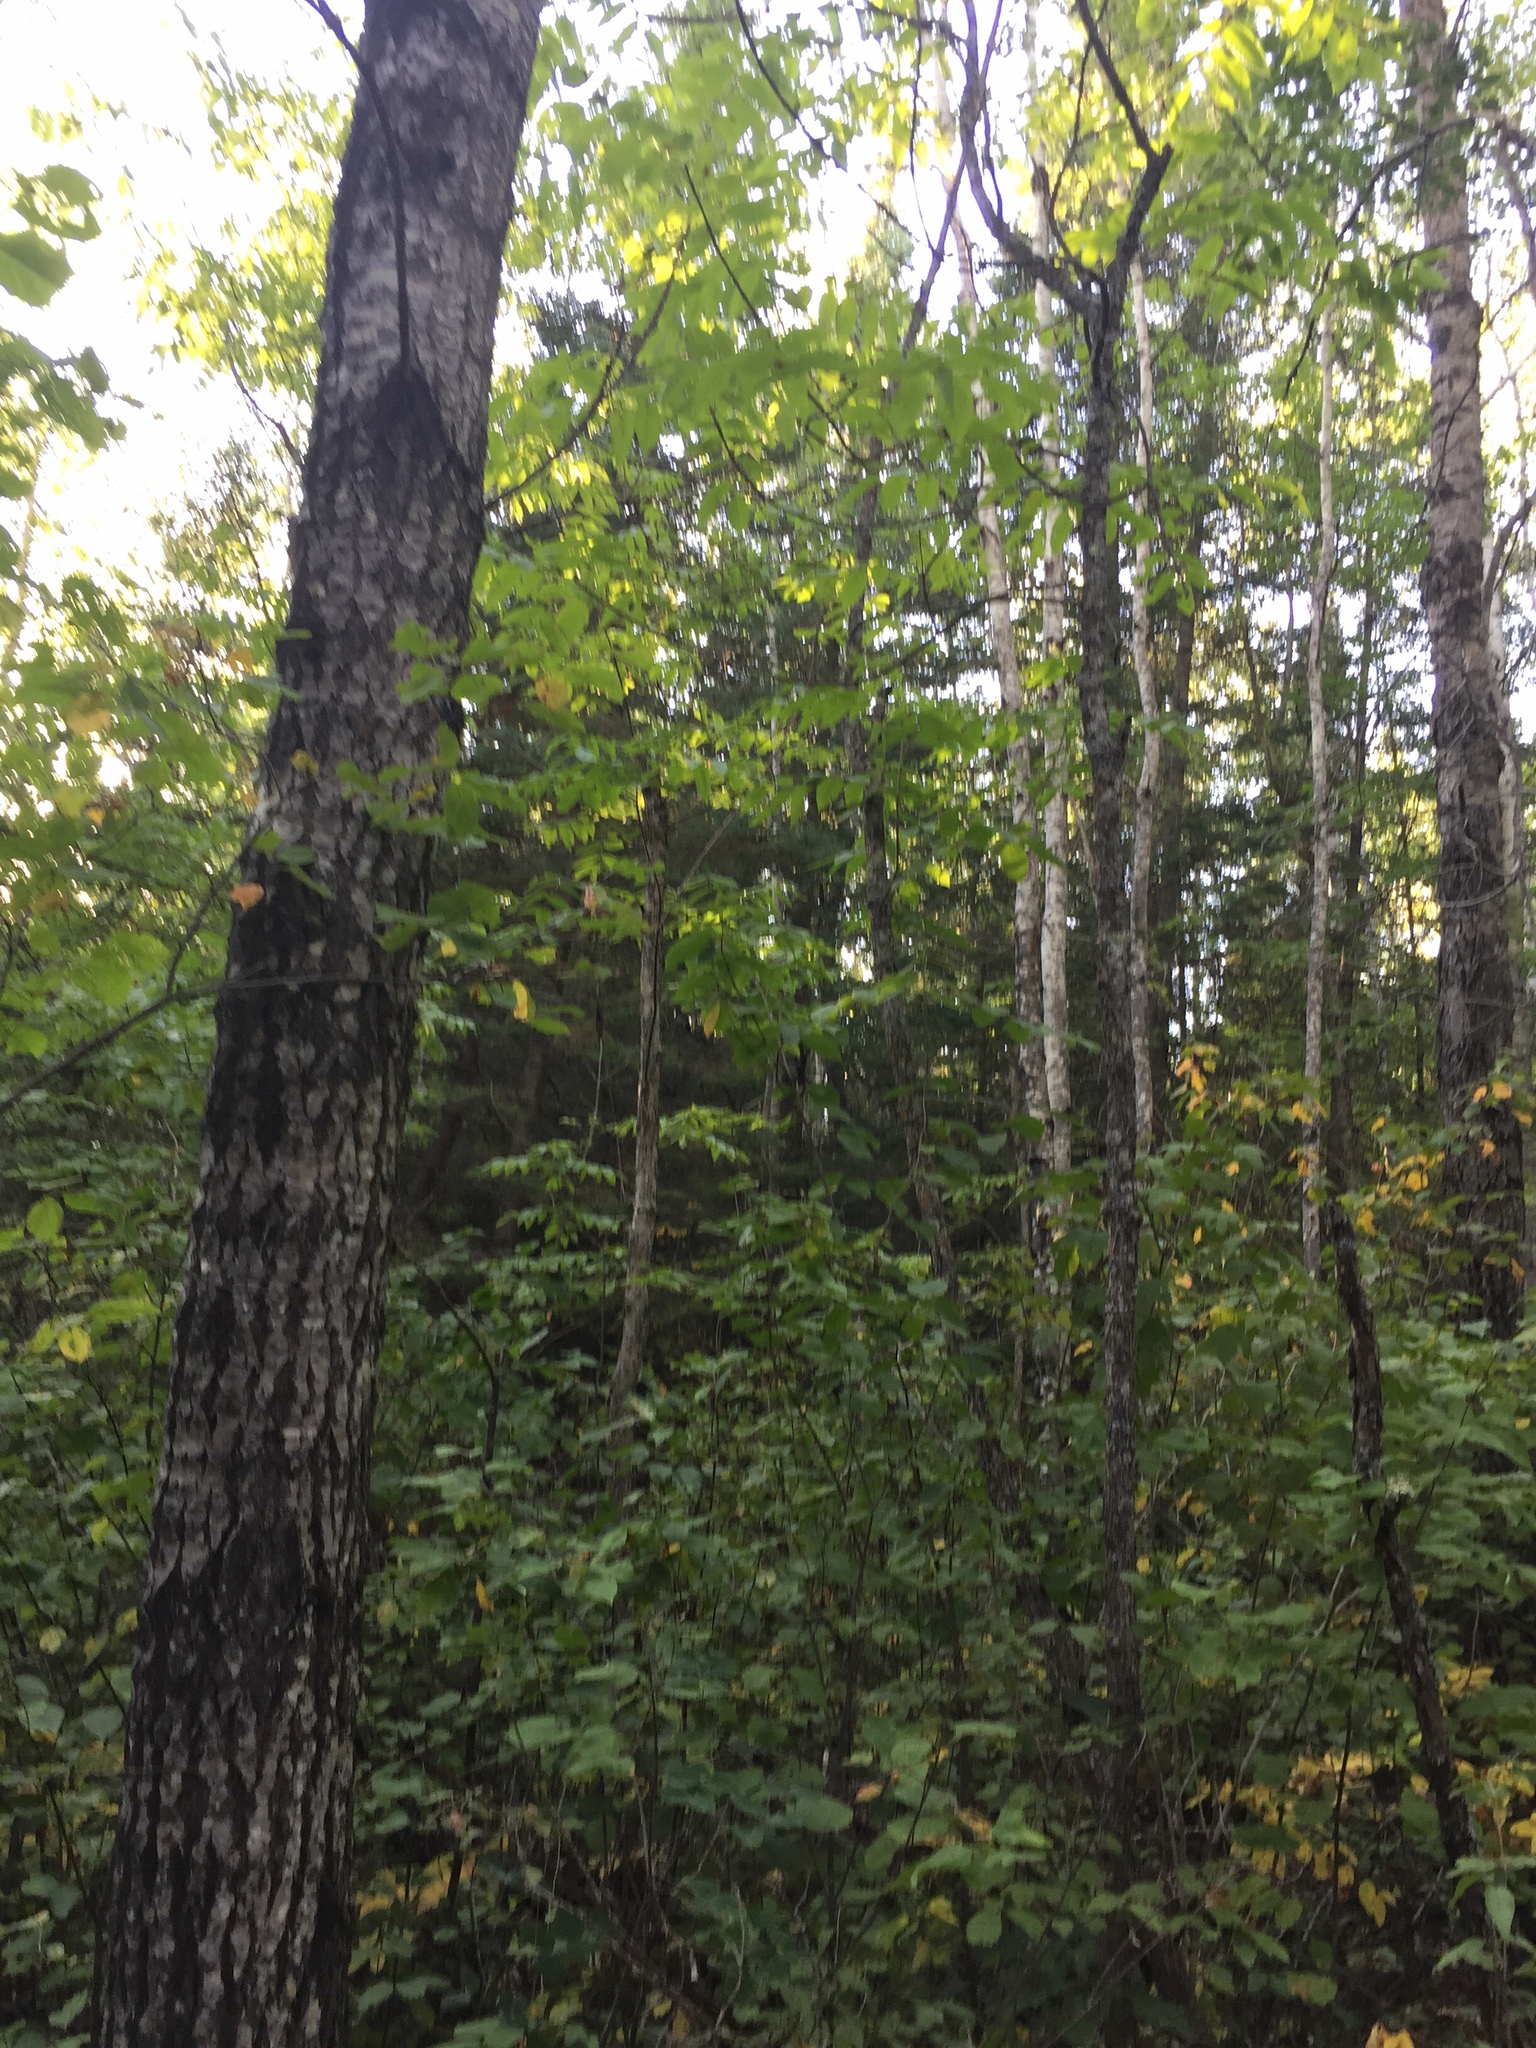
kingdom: Plantae
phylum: Tracheophyta
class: Magnoliopsida
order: Lamiales
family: Oleaceae
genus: Fraxinus
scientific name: Fraxinus nigra
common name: Black ash
